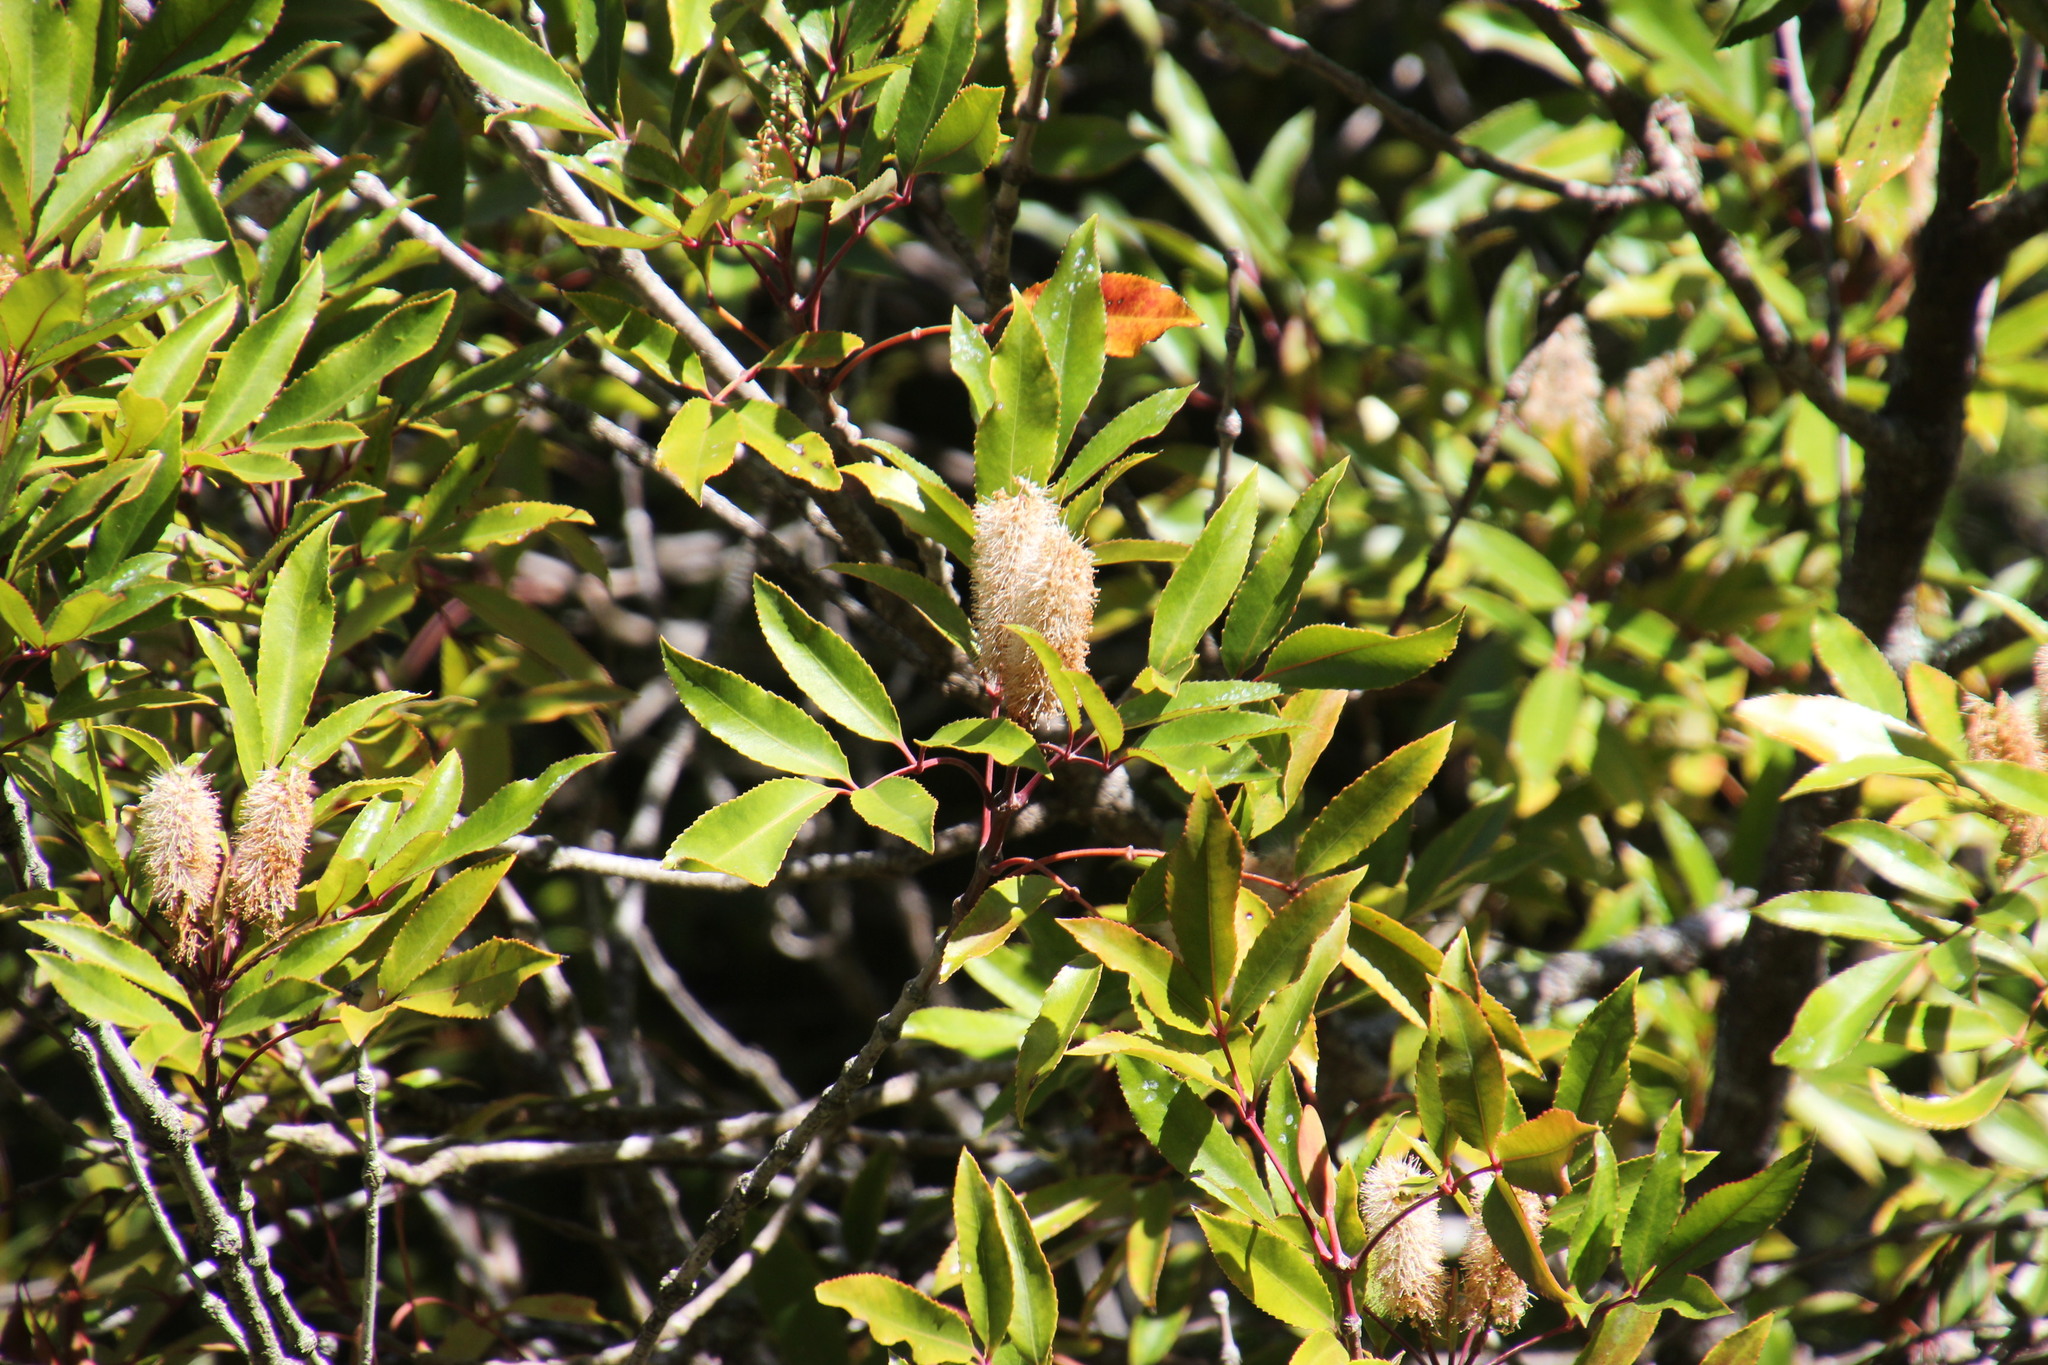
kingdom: Plantae
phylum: Tracheophyta
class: Magnoliopsida
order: Oxalidales
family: Cunoniaceae
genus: Cunonia
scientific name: Cunonia capensis
